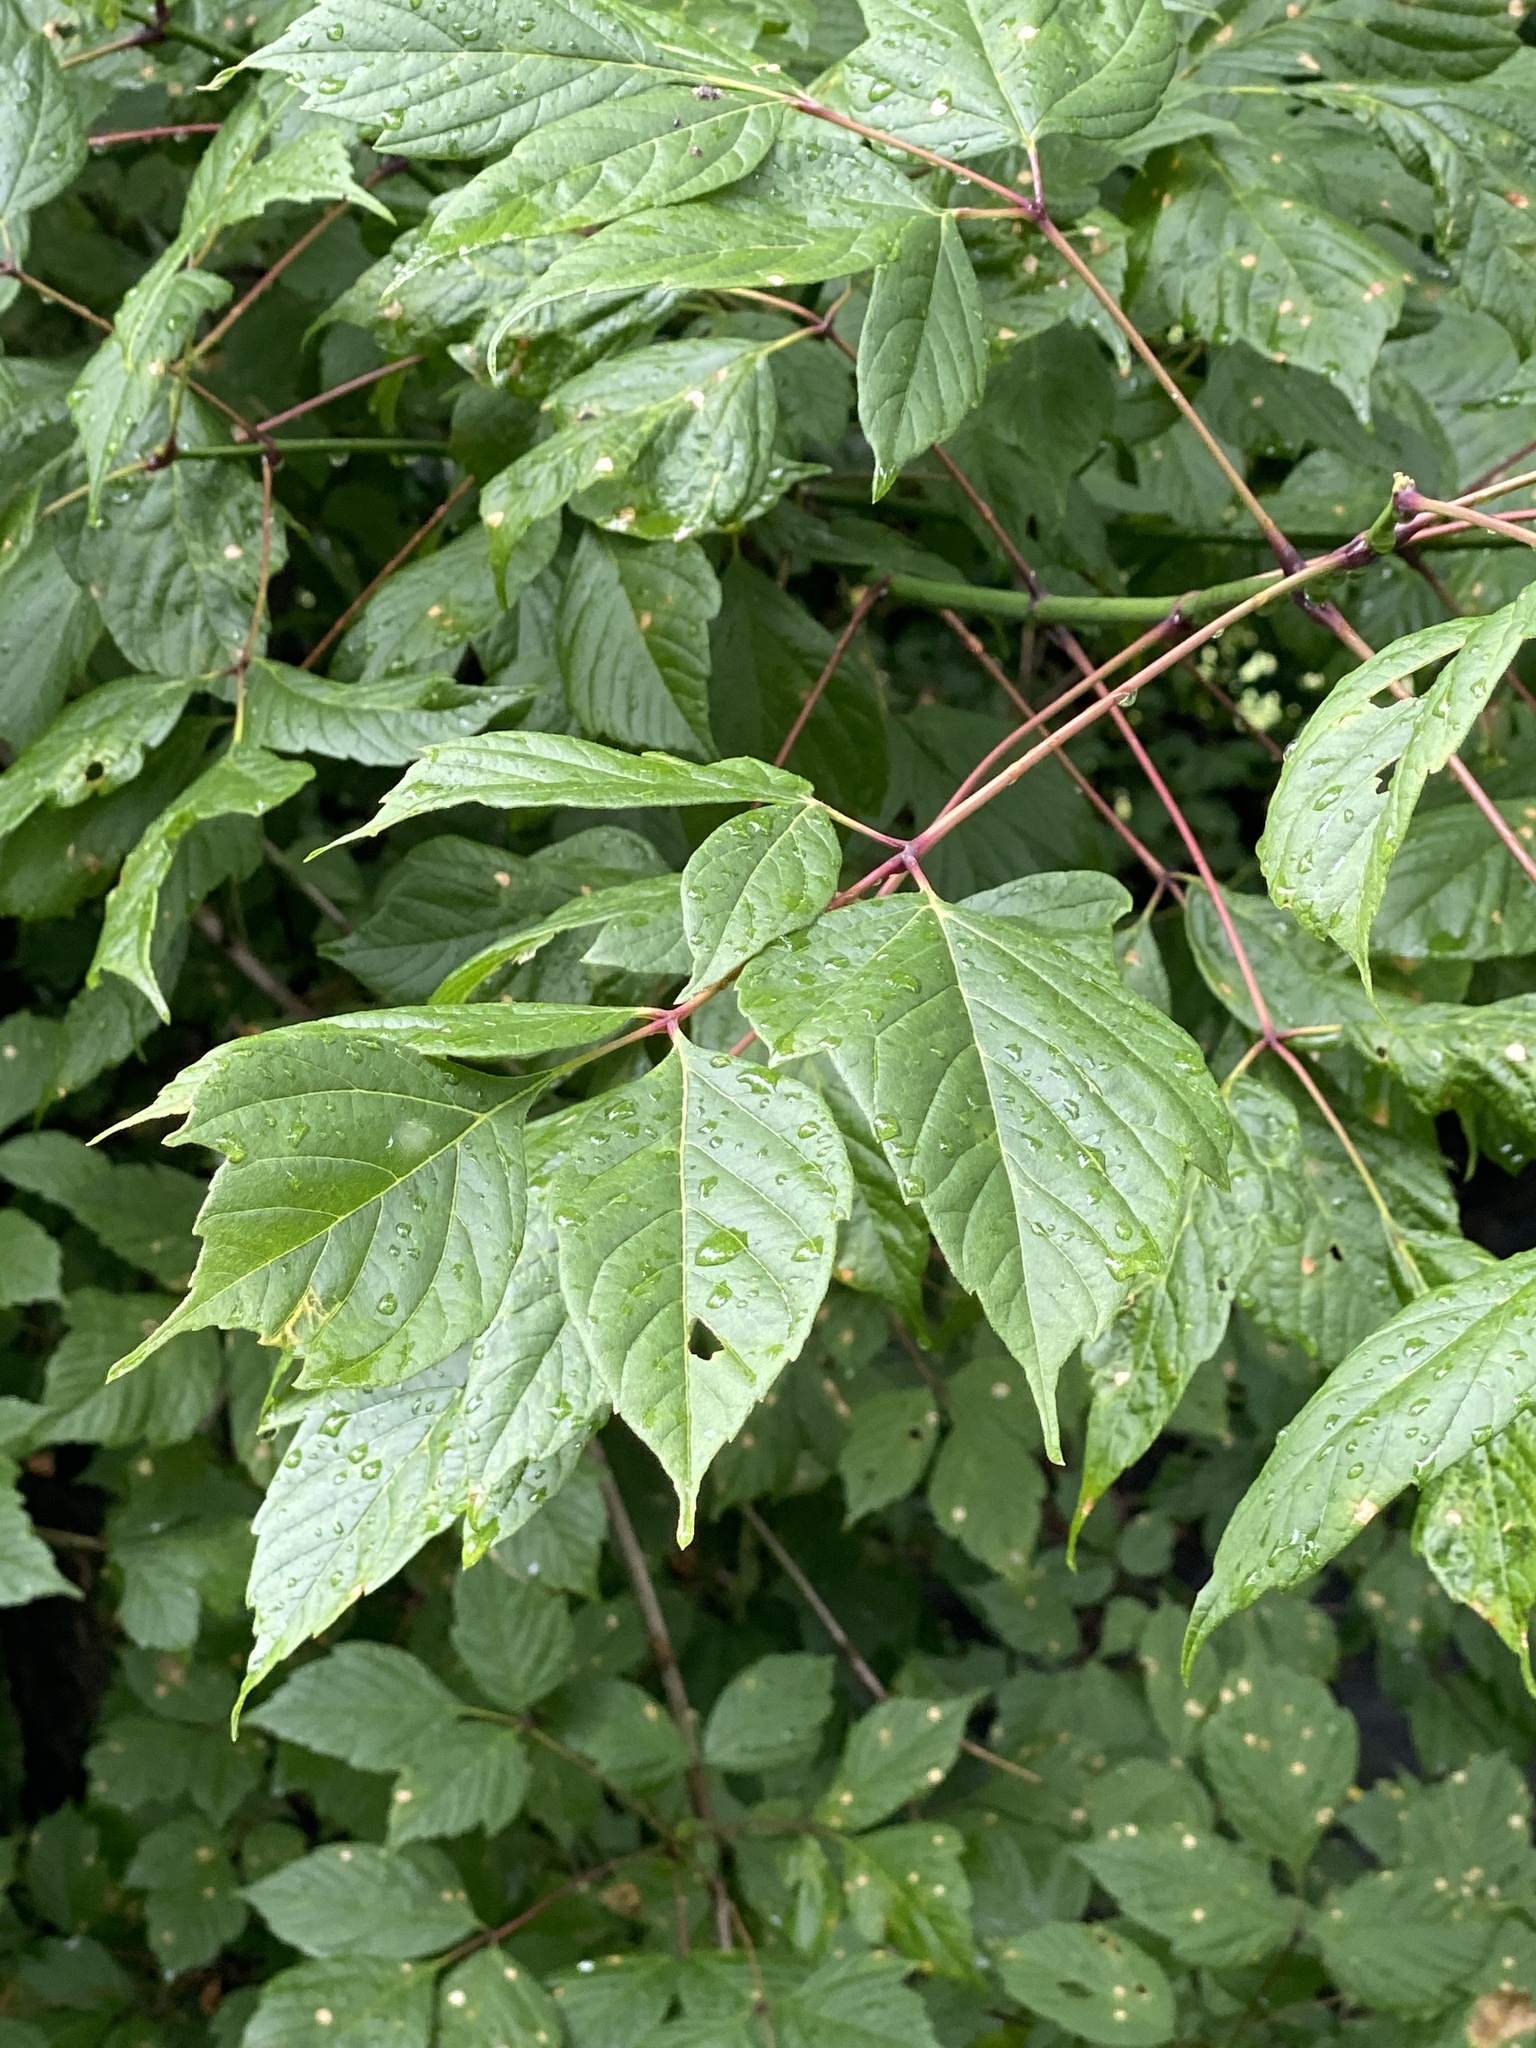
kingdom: Plantae
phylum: Tracheophyta
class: Magnoliopsida
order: Sapindales
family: Sapindaceae
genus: Acer
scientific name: Acer negundo
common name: Ashleaf maple
